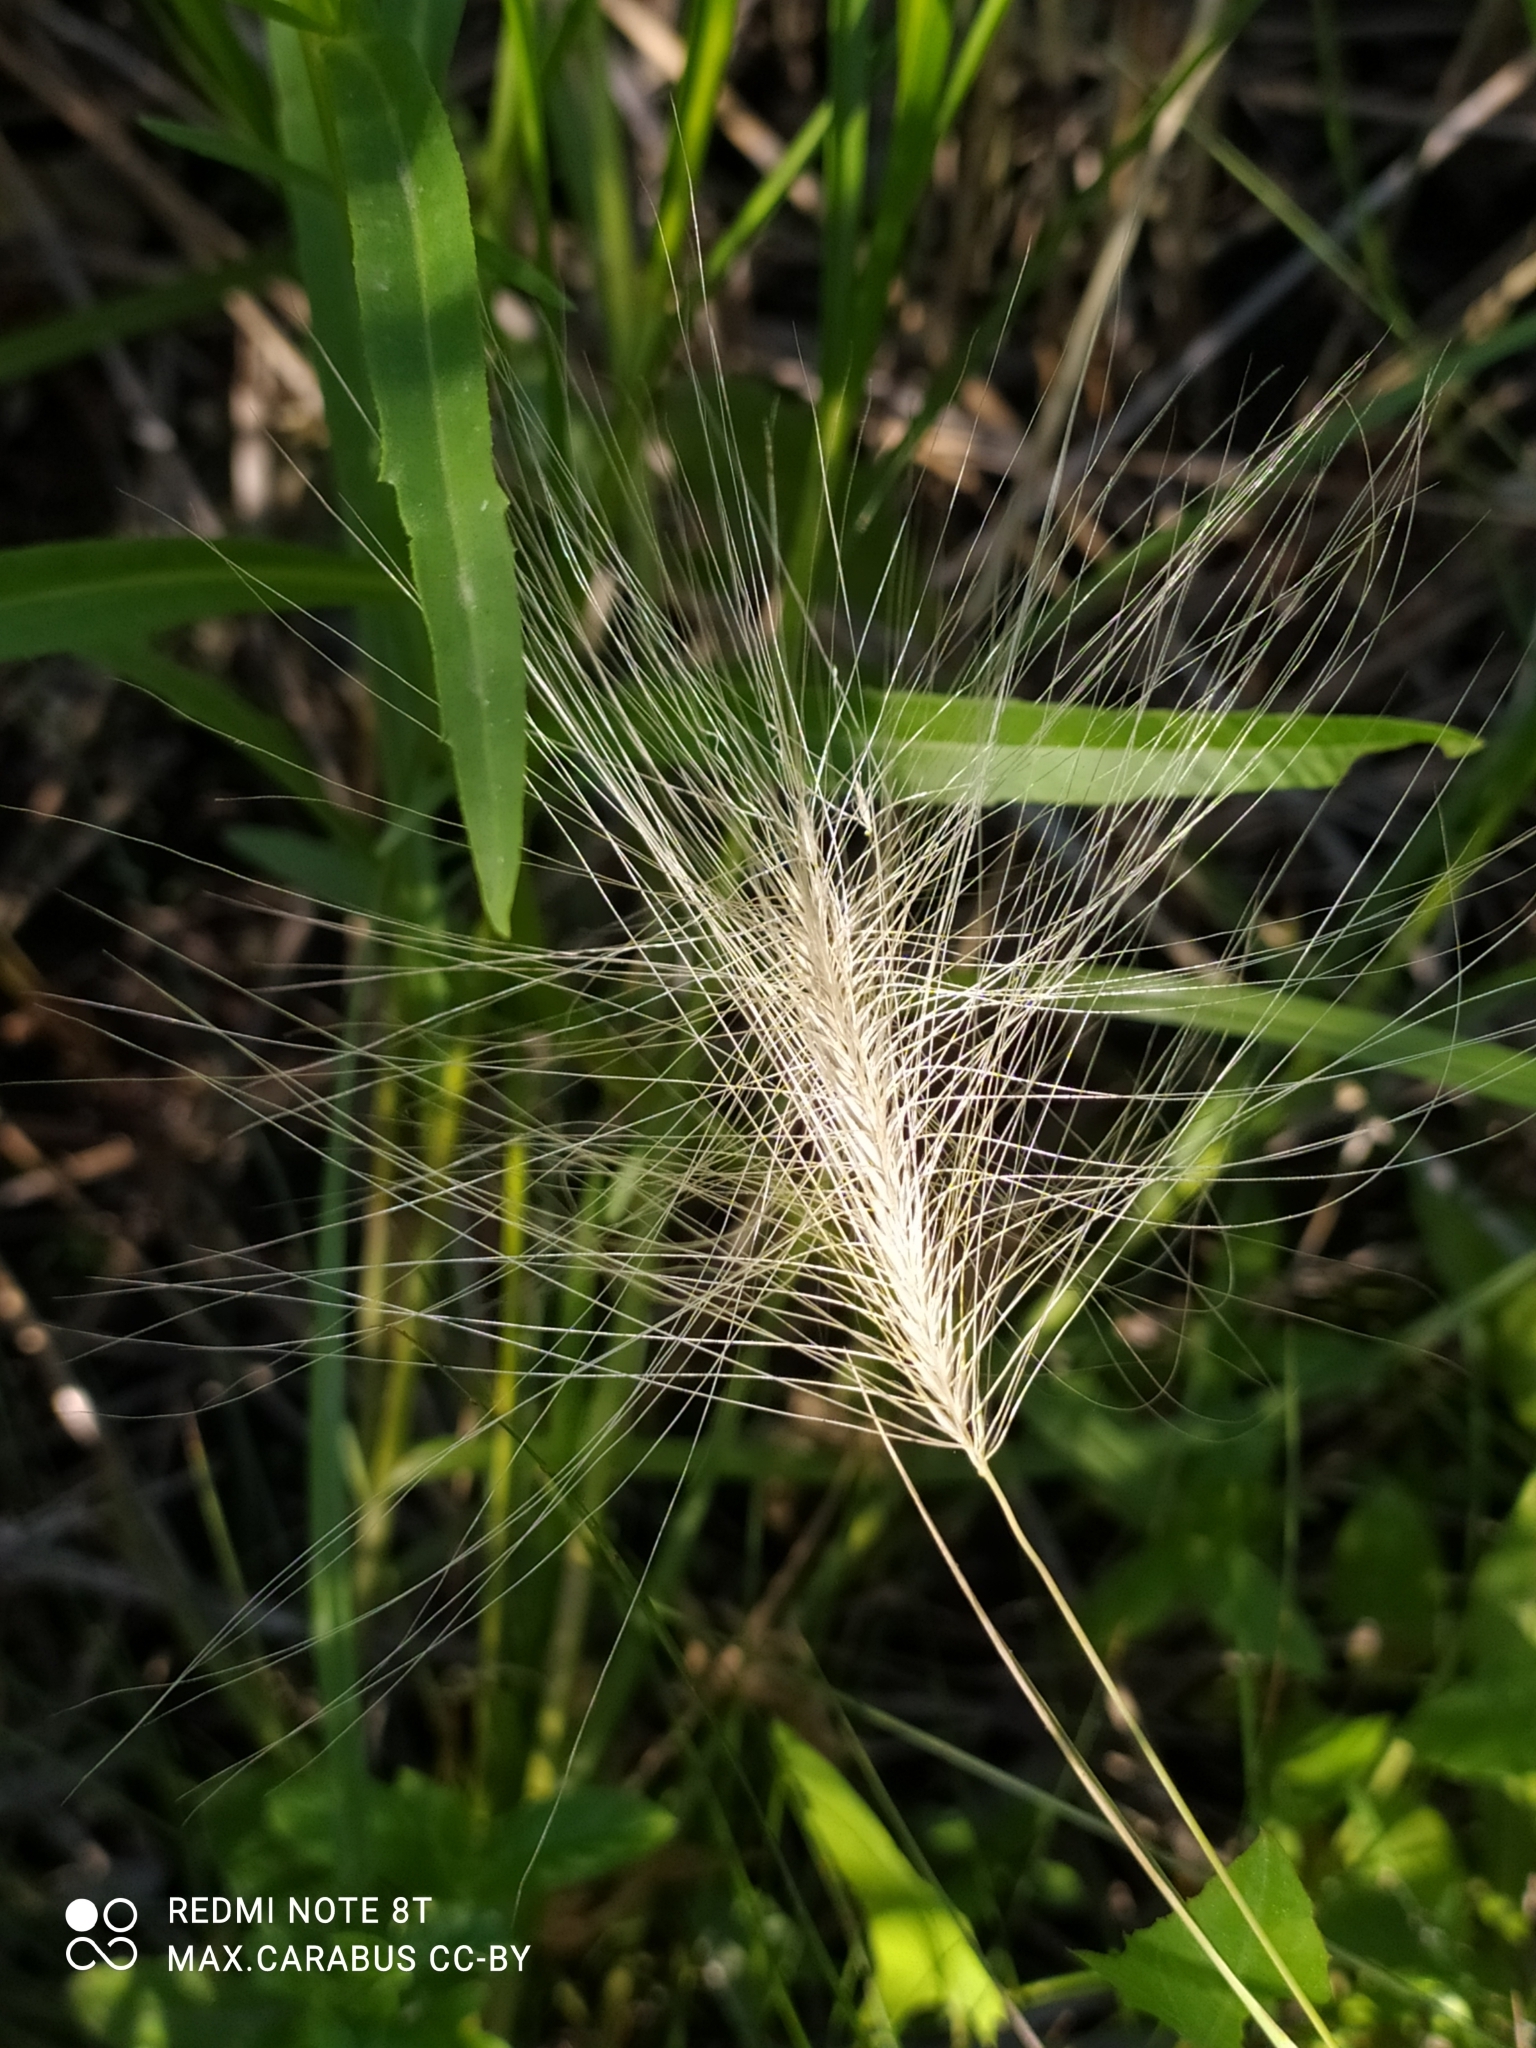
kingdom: Plantae
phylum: Tracheophyta
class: Liliopsida
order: Poales
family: Poaceae
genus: Hordeum
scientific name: Hordeum jubatum
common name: Foxtail barley
